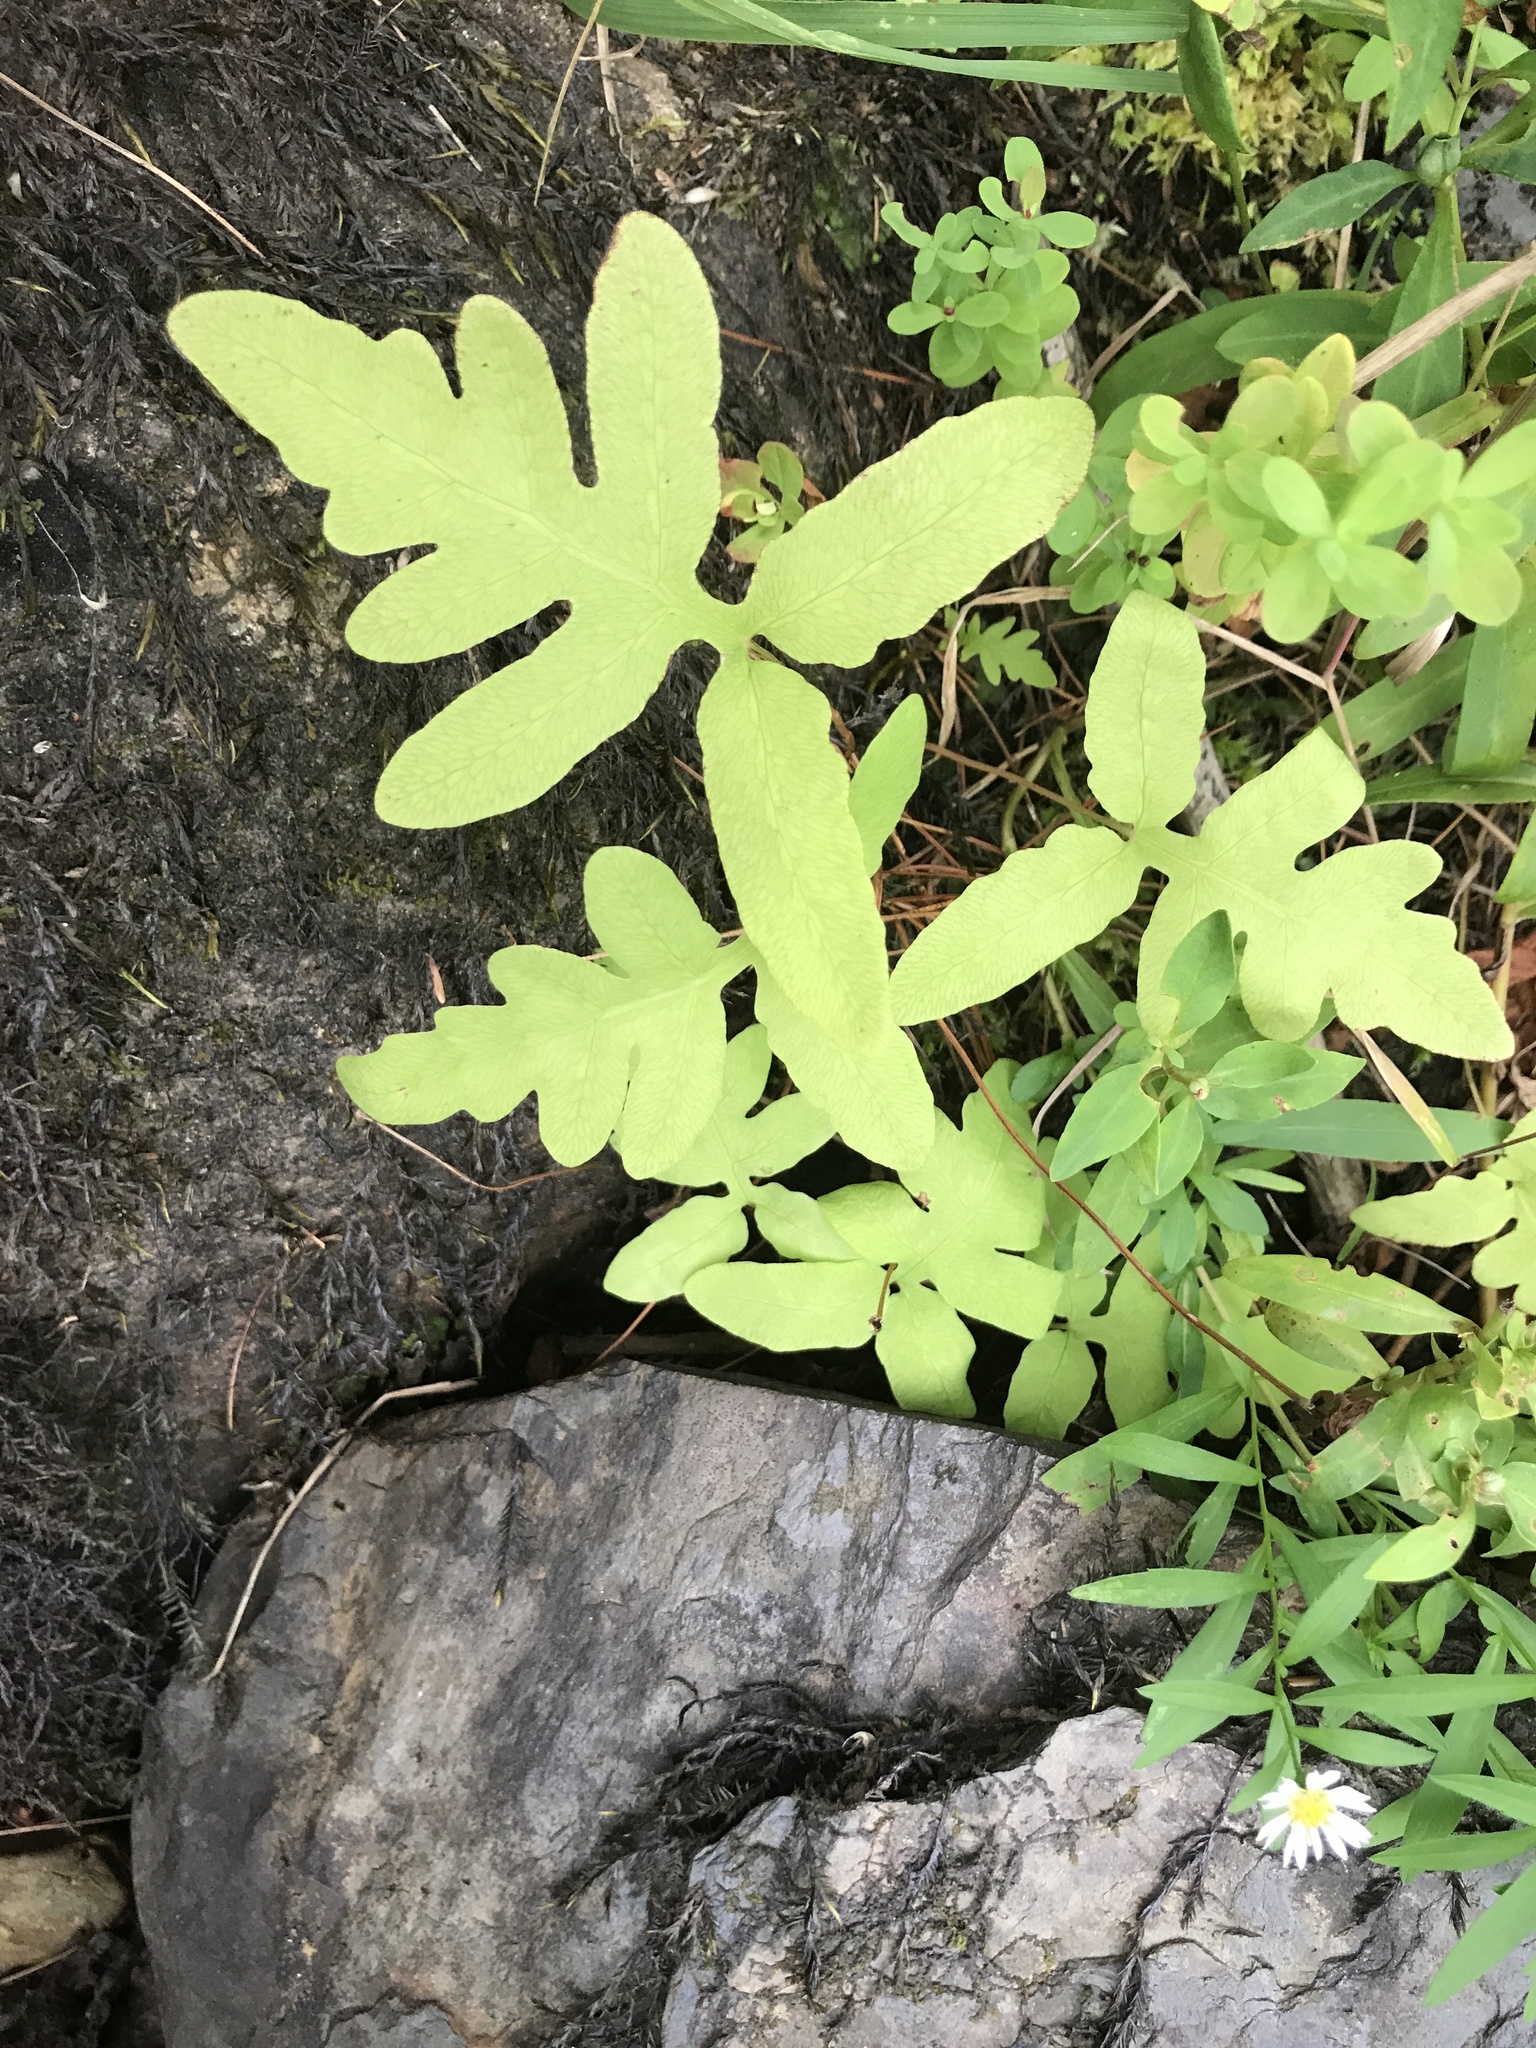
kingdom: Plantae
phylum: Tracheophyta
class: Polypodiopsida
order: Polypodiales
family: Onocleaceae
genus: Onoclea
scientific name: Onoclea sensibilis
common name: Sensitive fern
